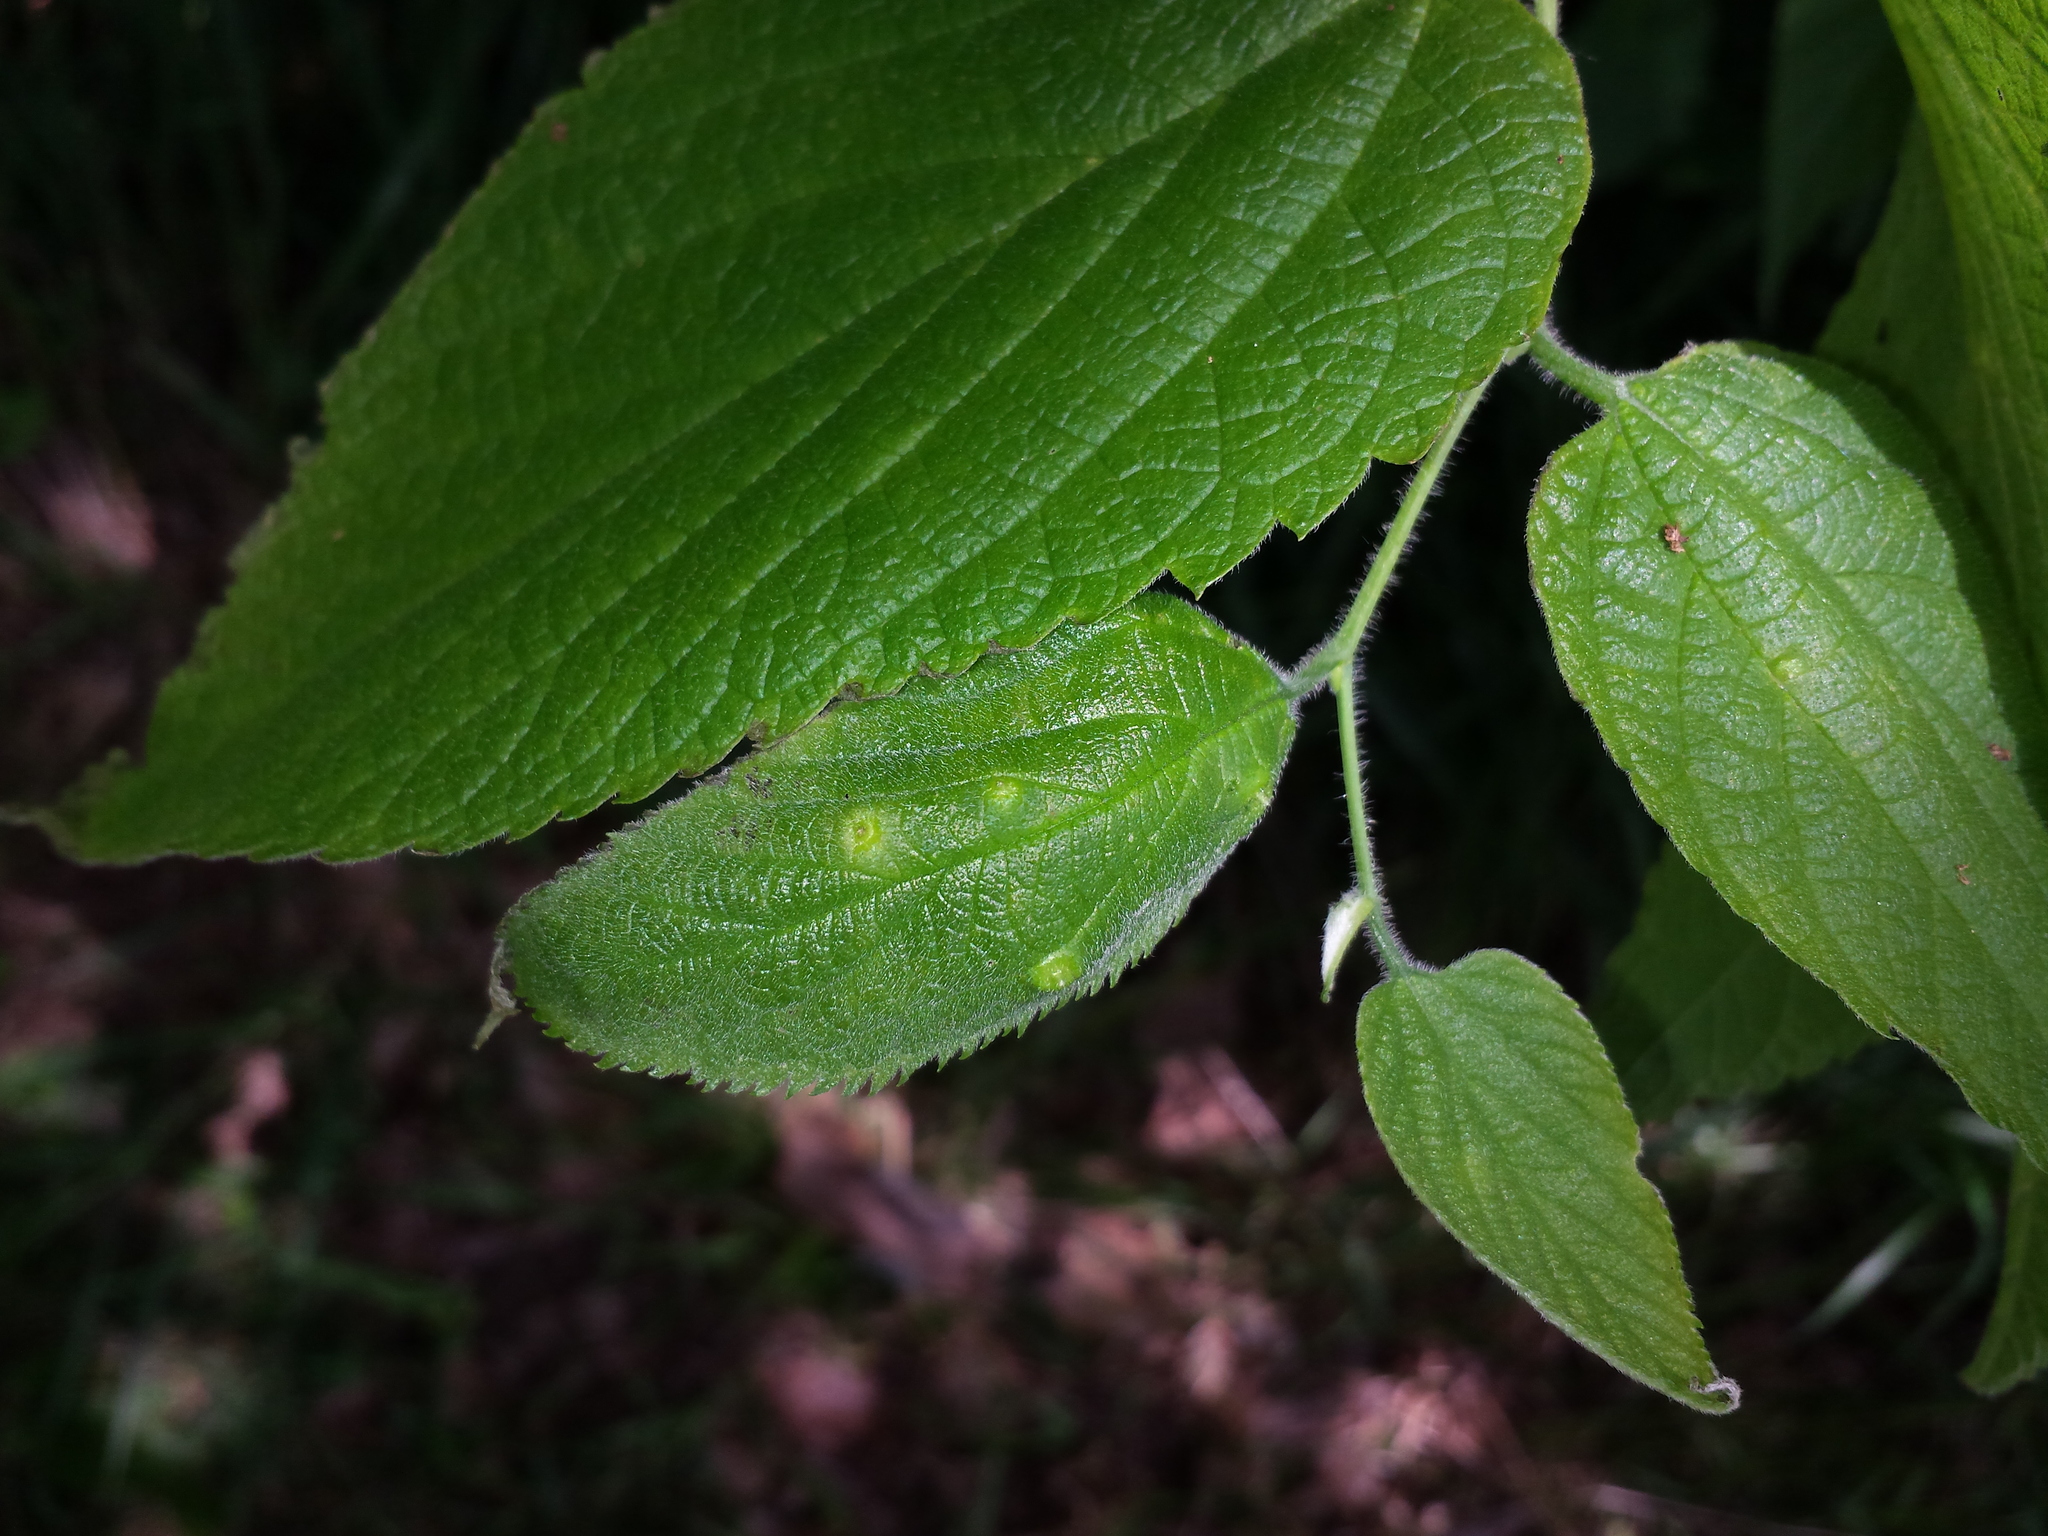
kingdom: Plantae
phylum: Tracheophyta
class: Magnoliopsida
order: Rosales
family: Cannabaceae
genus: Celtis
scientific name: Celtis occidentalis
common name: Common hackberry
